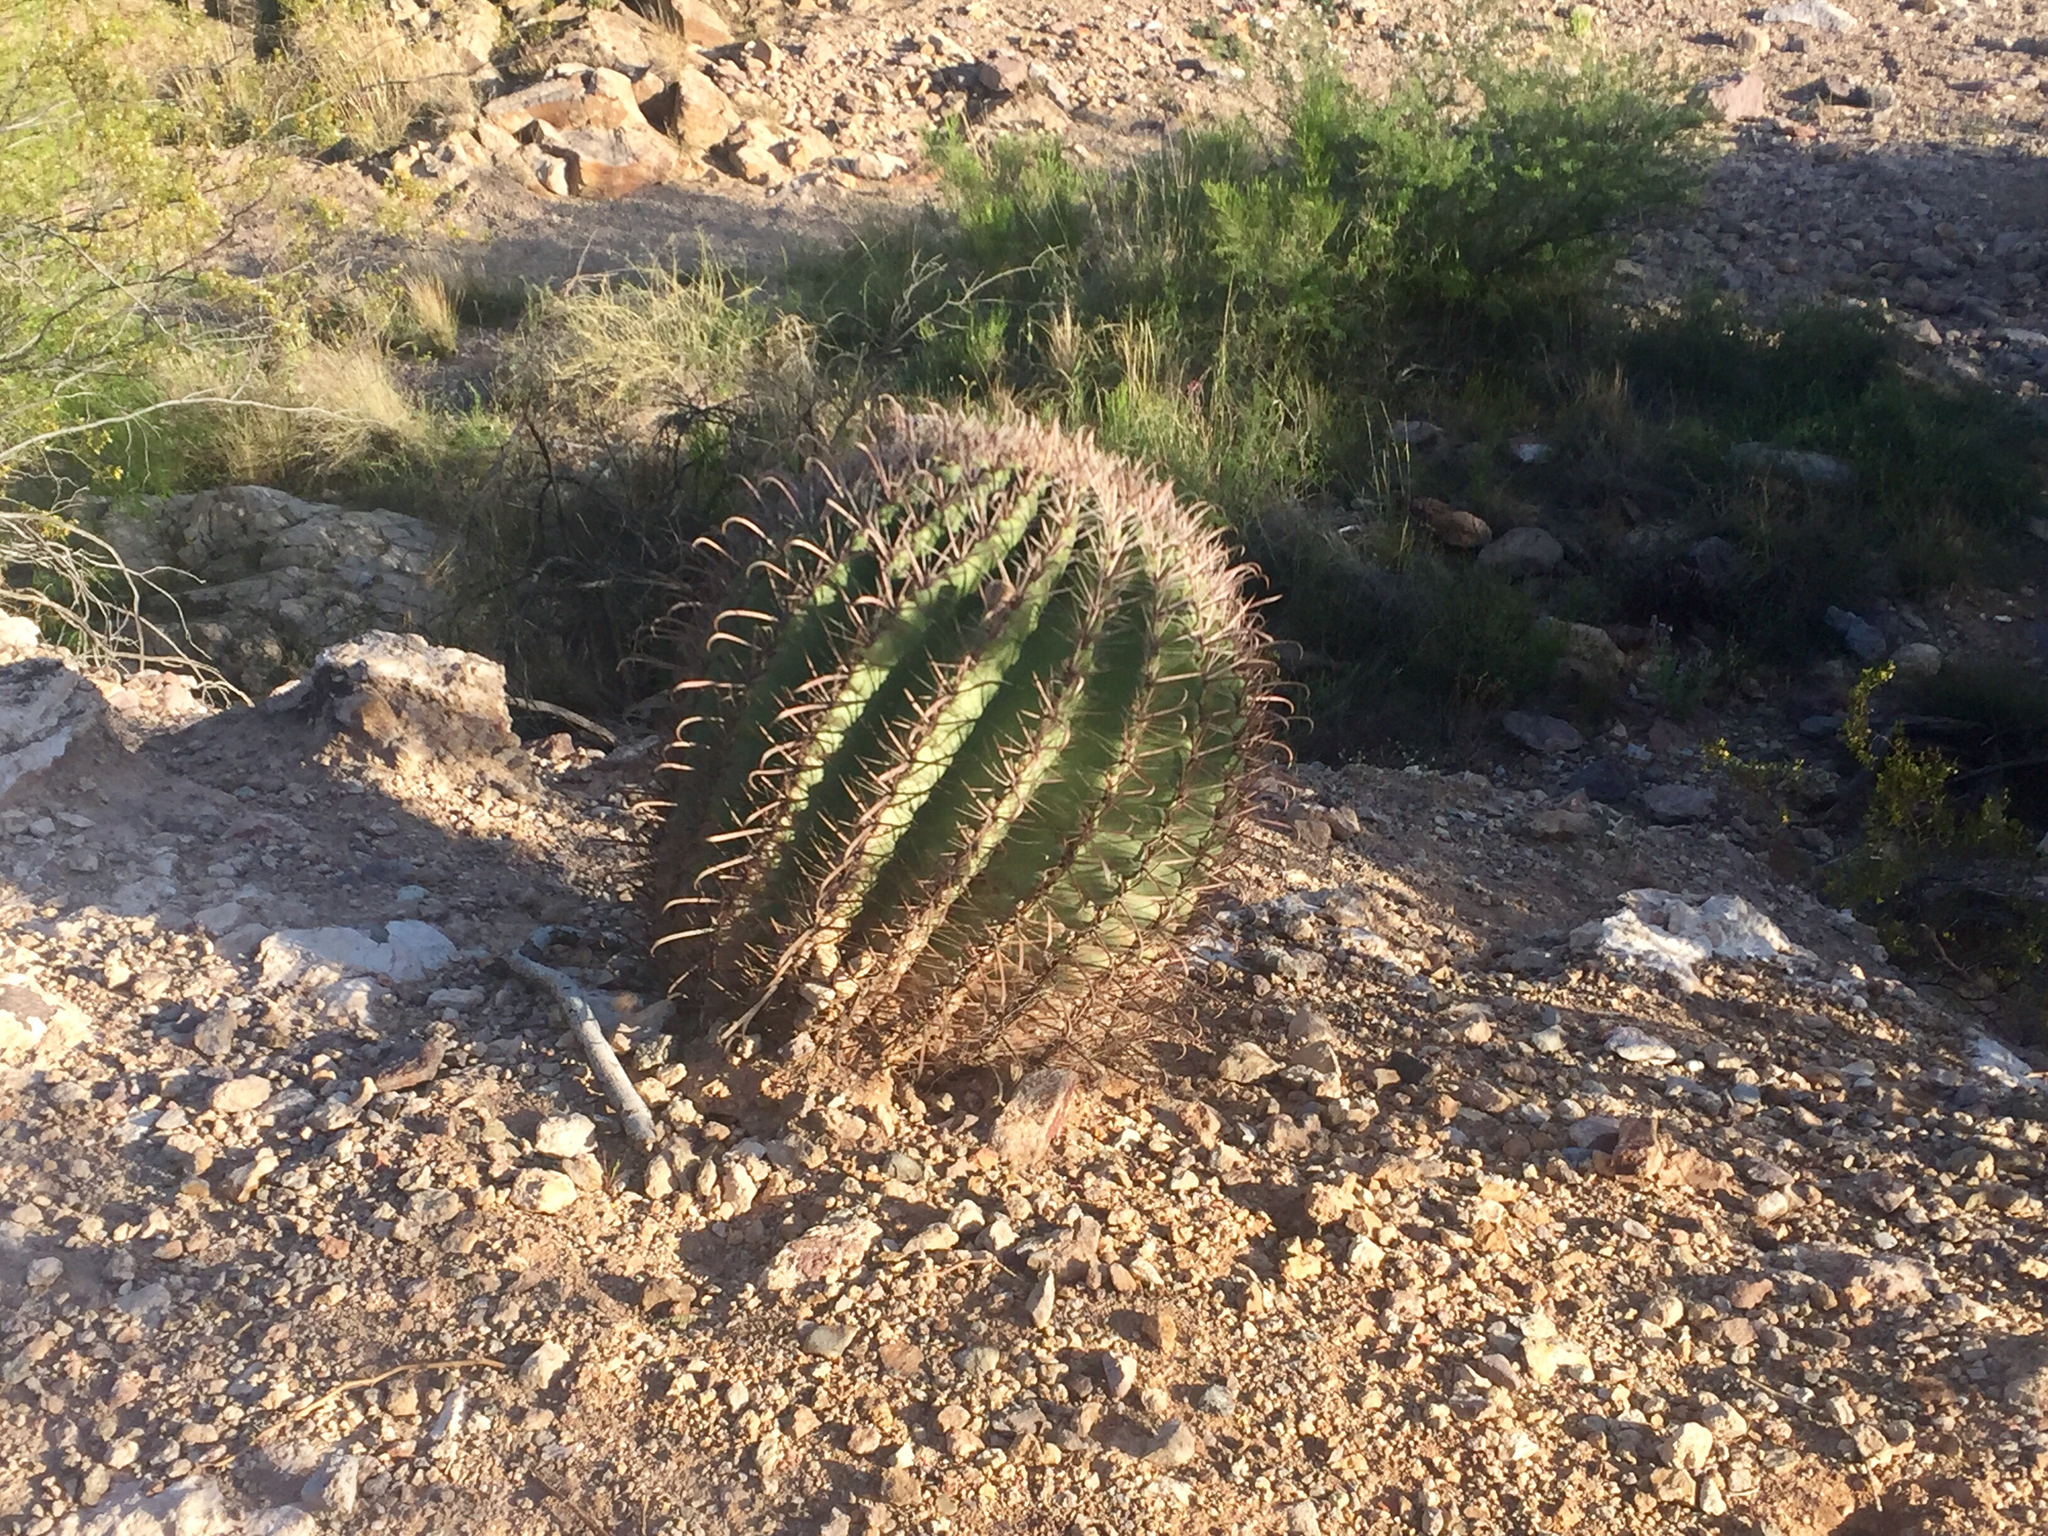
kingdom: Plantae
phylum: Tracheophyta
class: Magnoliopsida
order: Caryophyllales
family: Cactaceae
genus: Ferocactus
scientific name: Ferocactus wislizeni
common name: Candy barrel cactus
